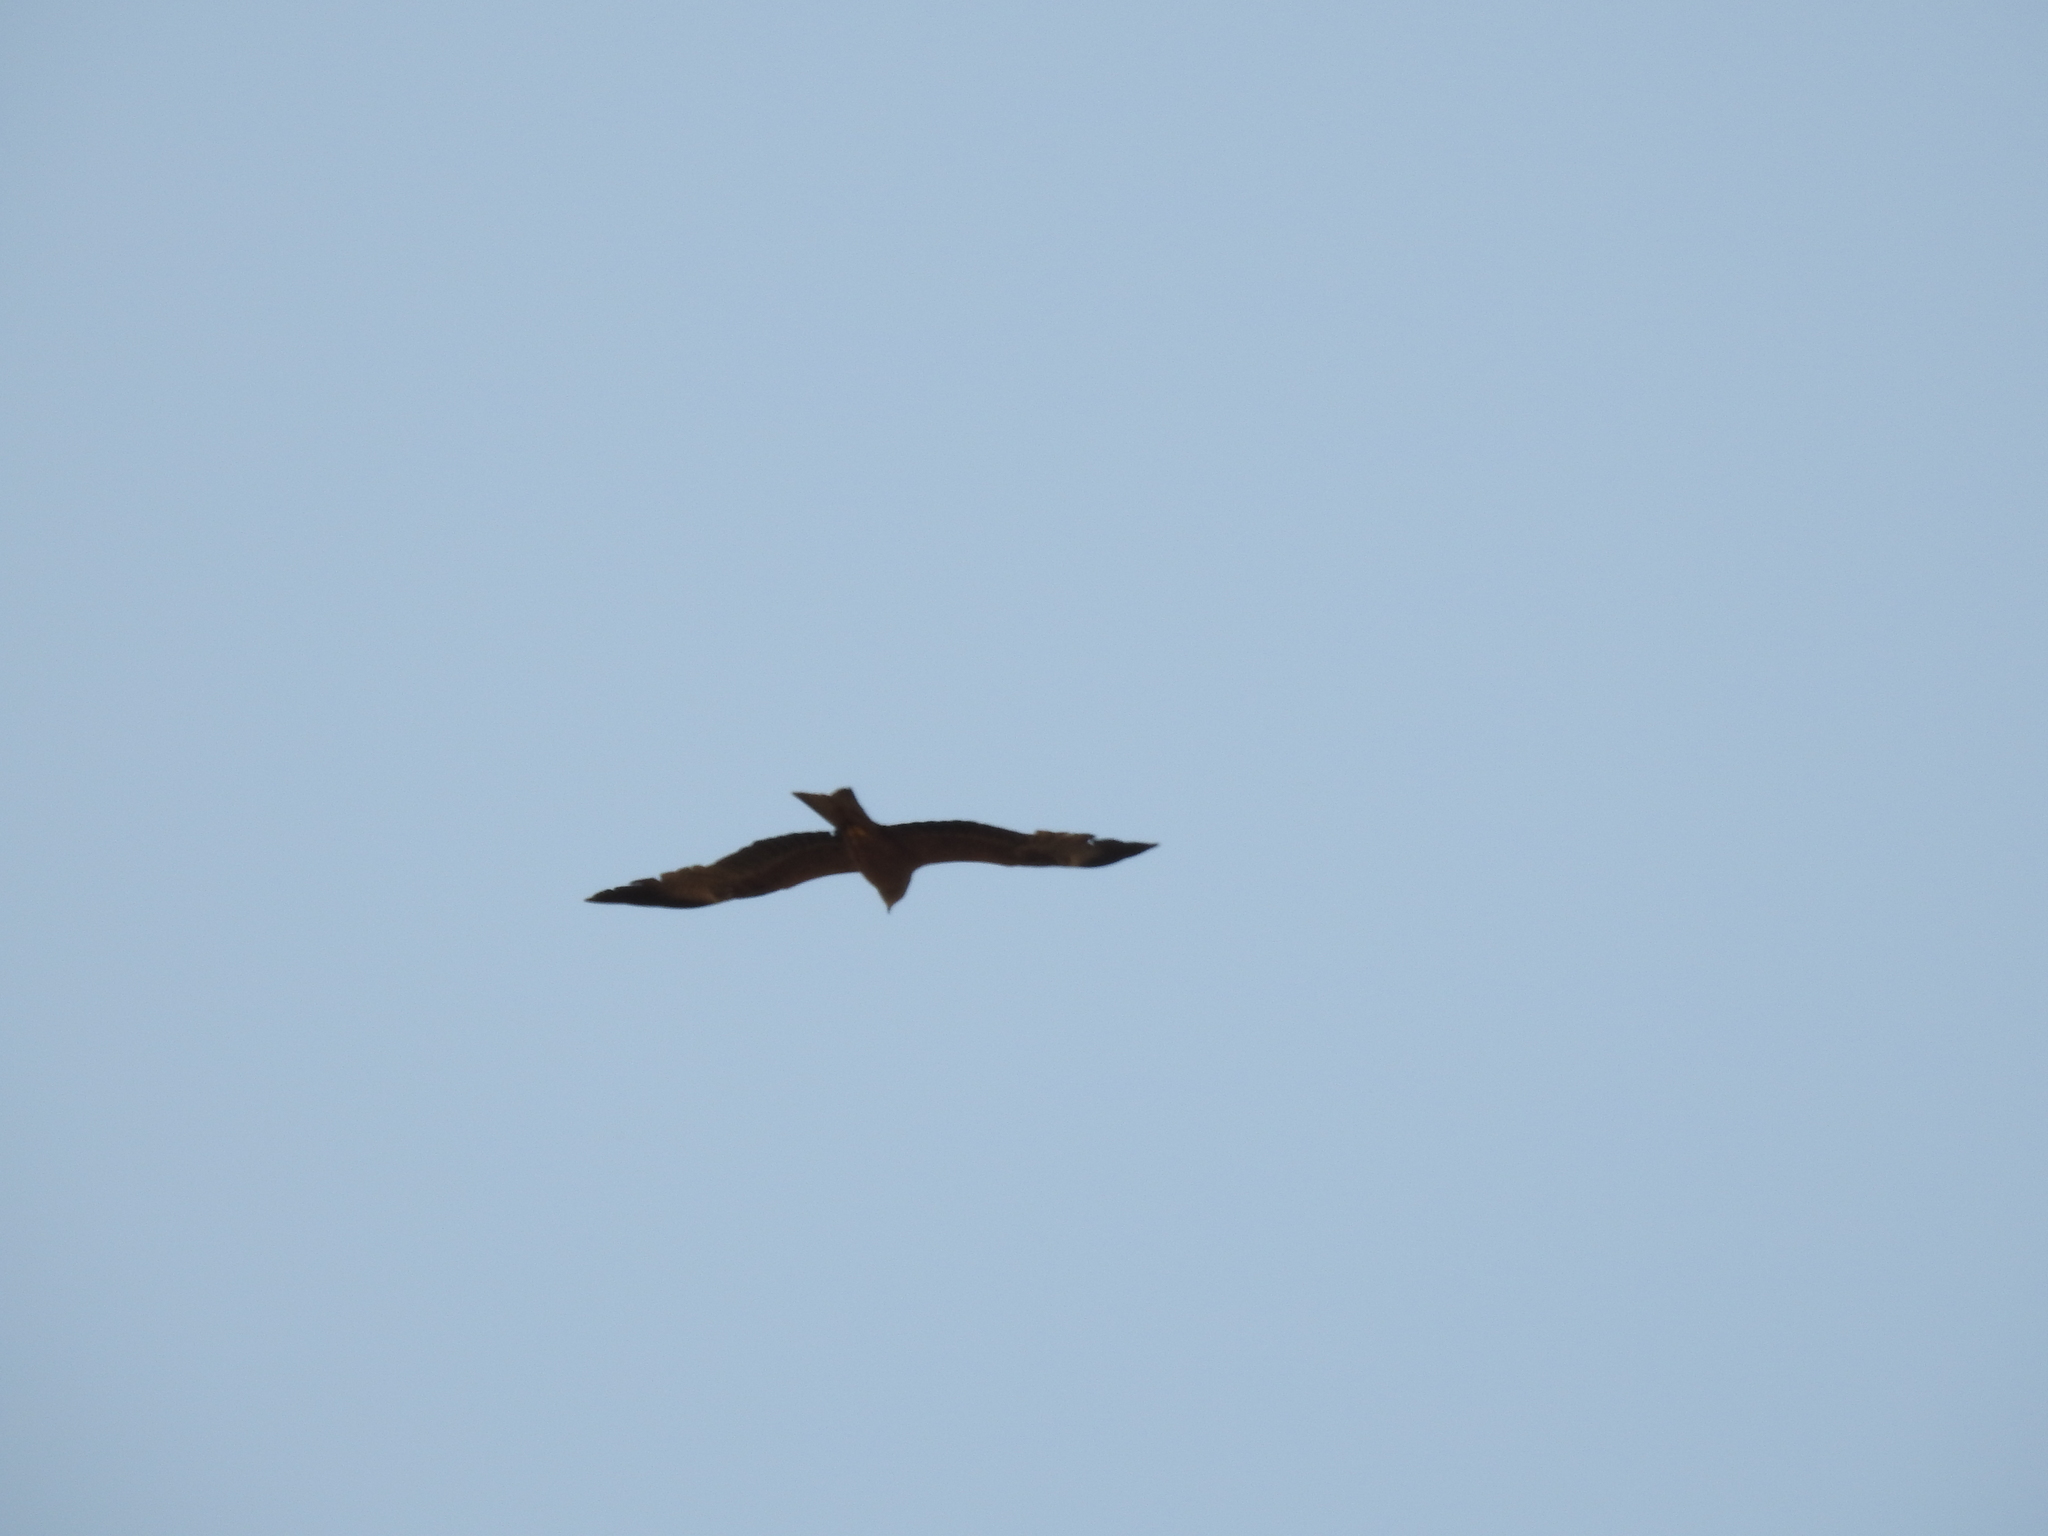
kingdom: Animalia
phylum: Chordata
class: Aves
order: Accipitriformes
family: Accipitridae
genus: Milvus
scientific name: Milvus migrans
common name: Black kite
